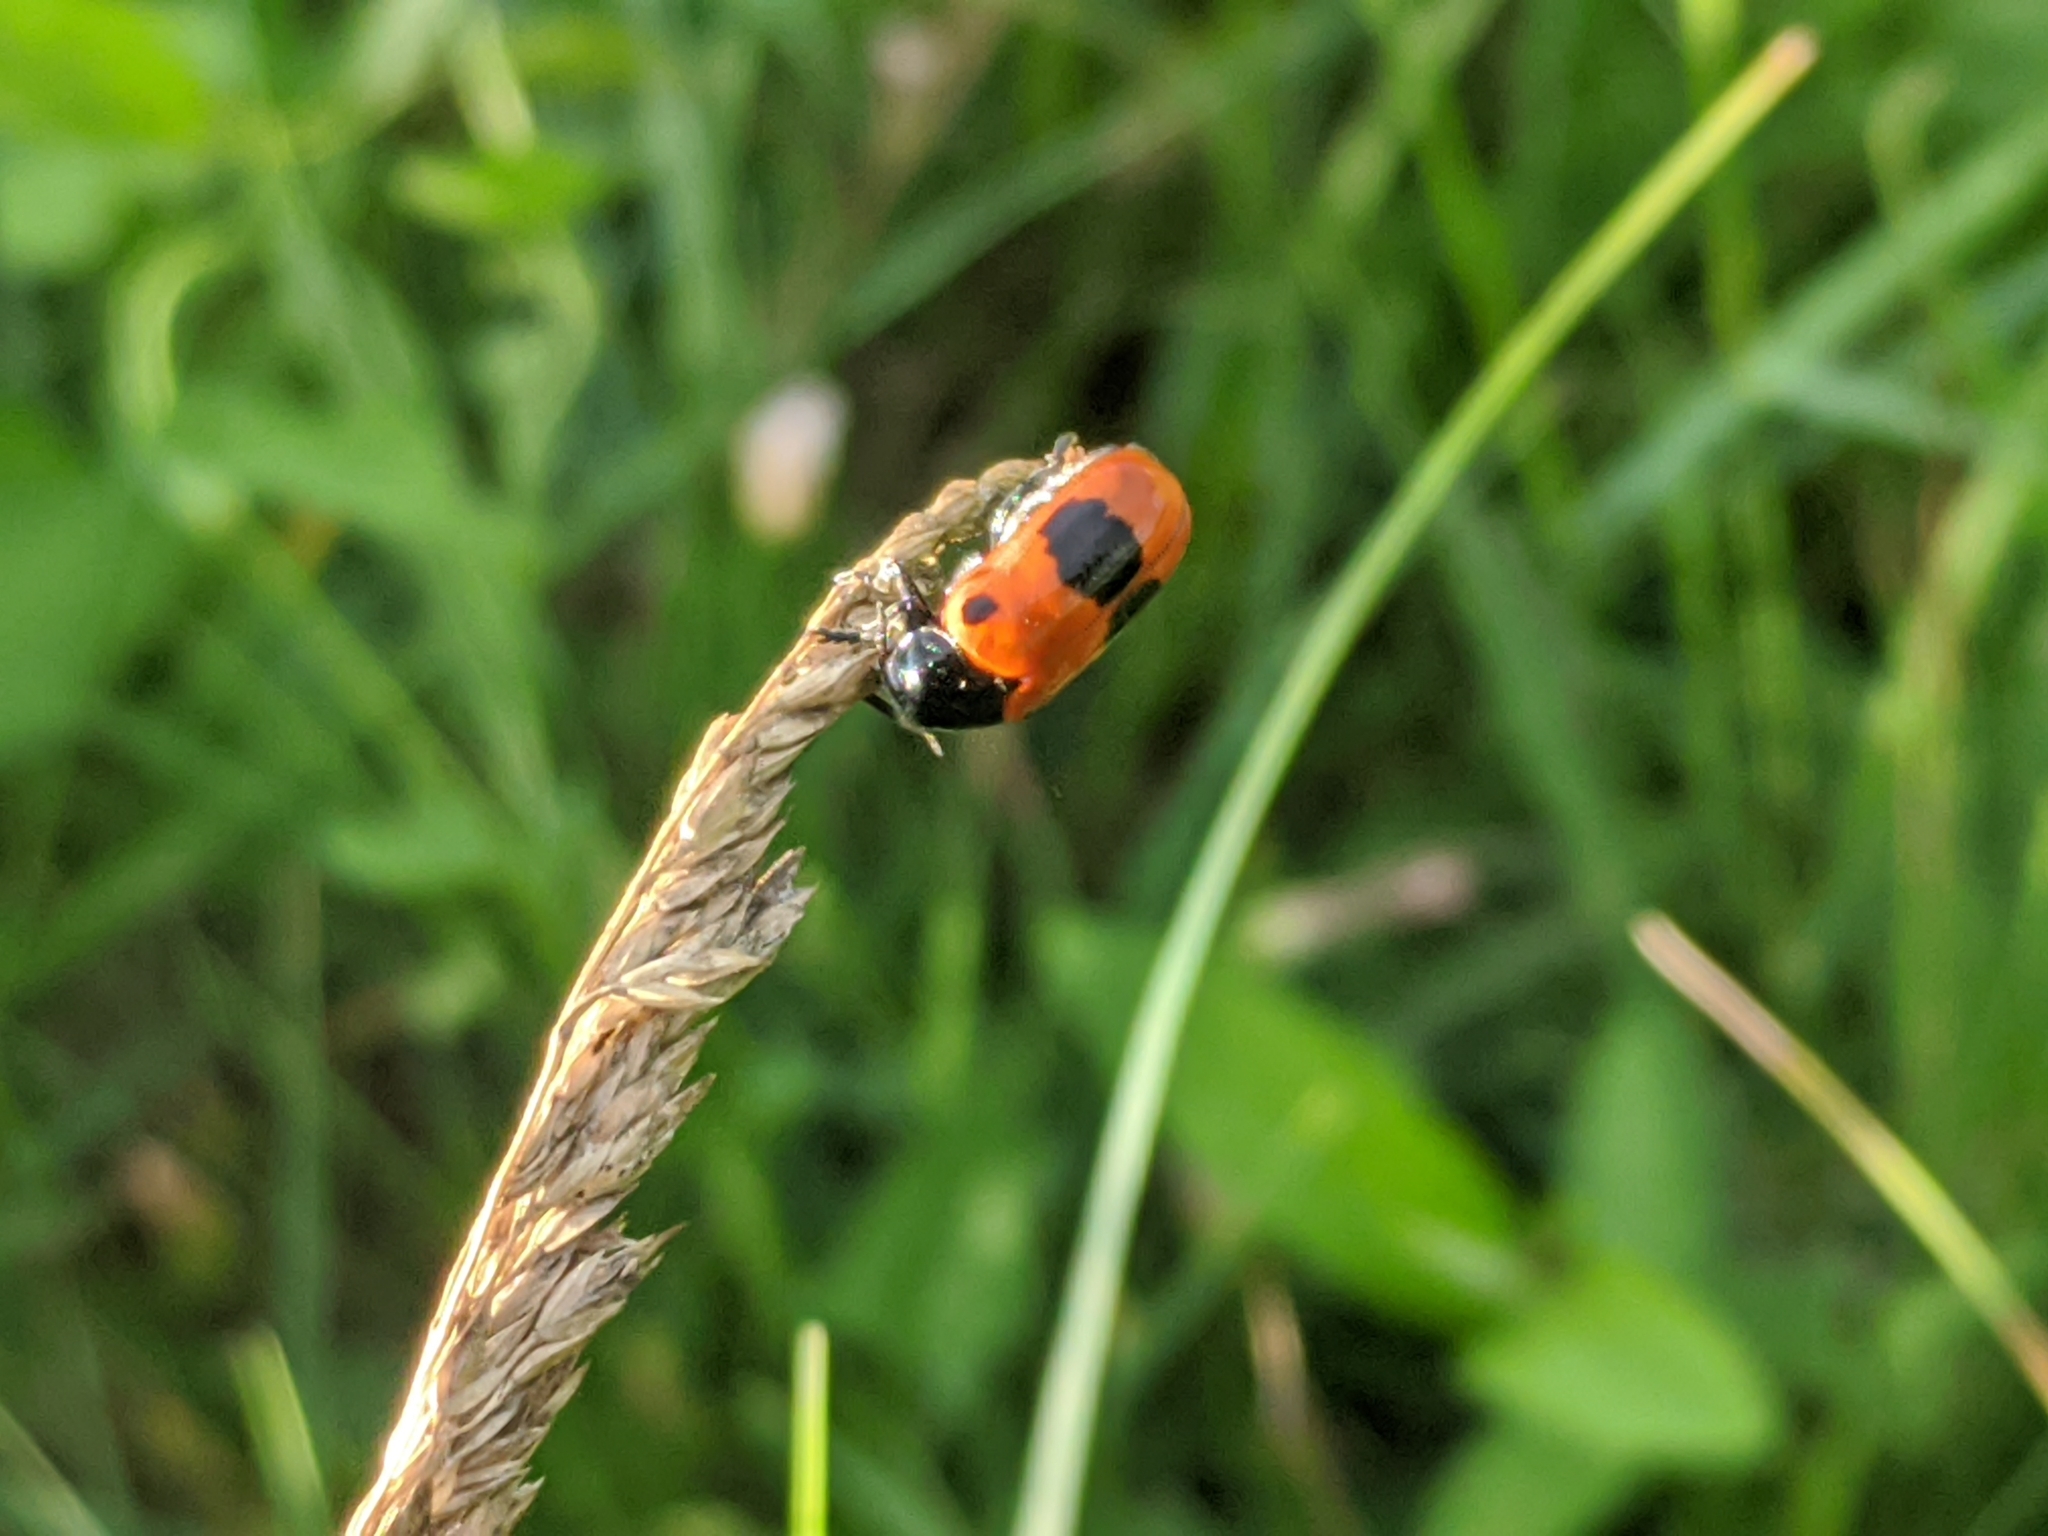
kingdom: Animalia
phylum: Arthropoda
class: Insecta
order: Coleoptera
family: Chrysomelidae
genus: Clytra
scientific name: Clytra laeviuscula
